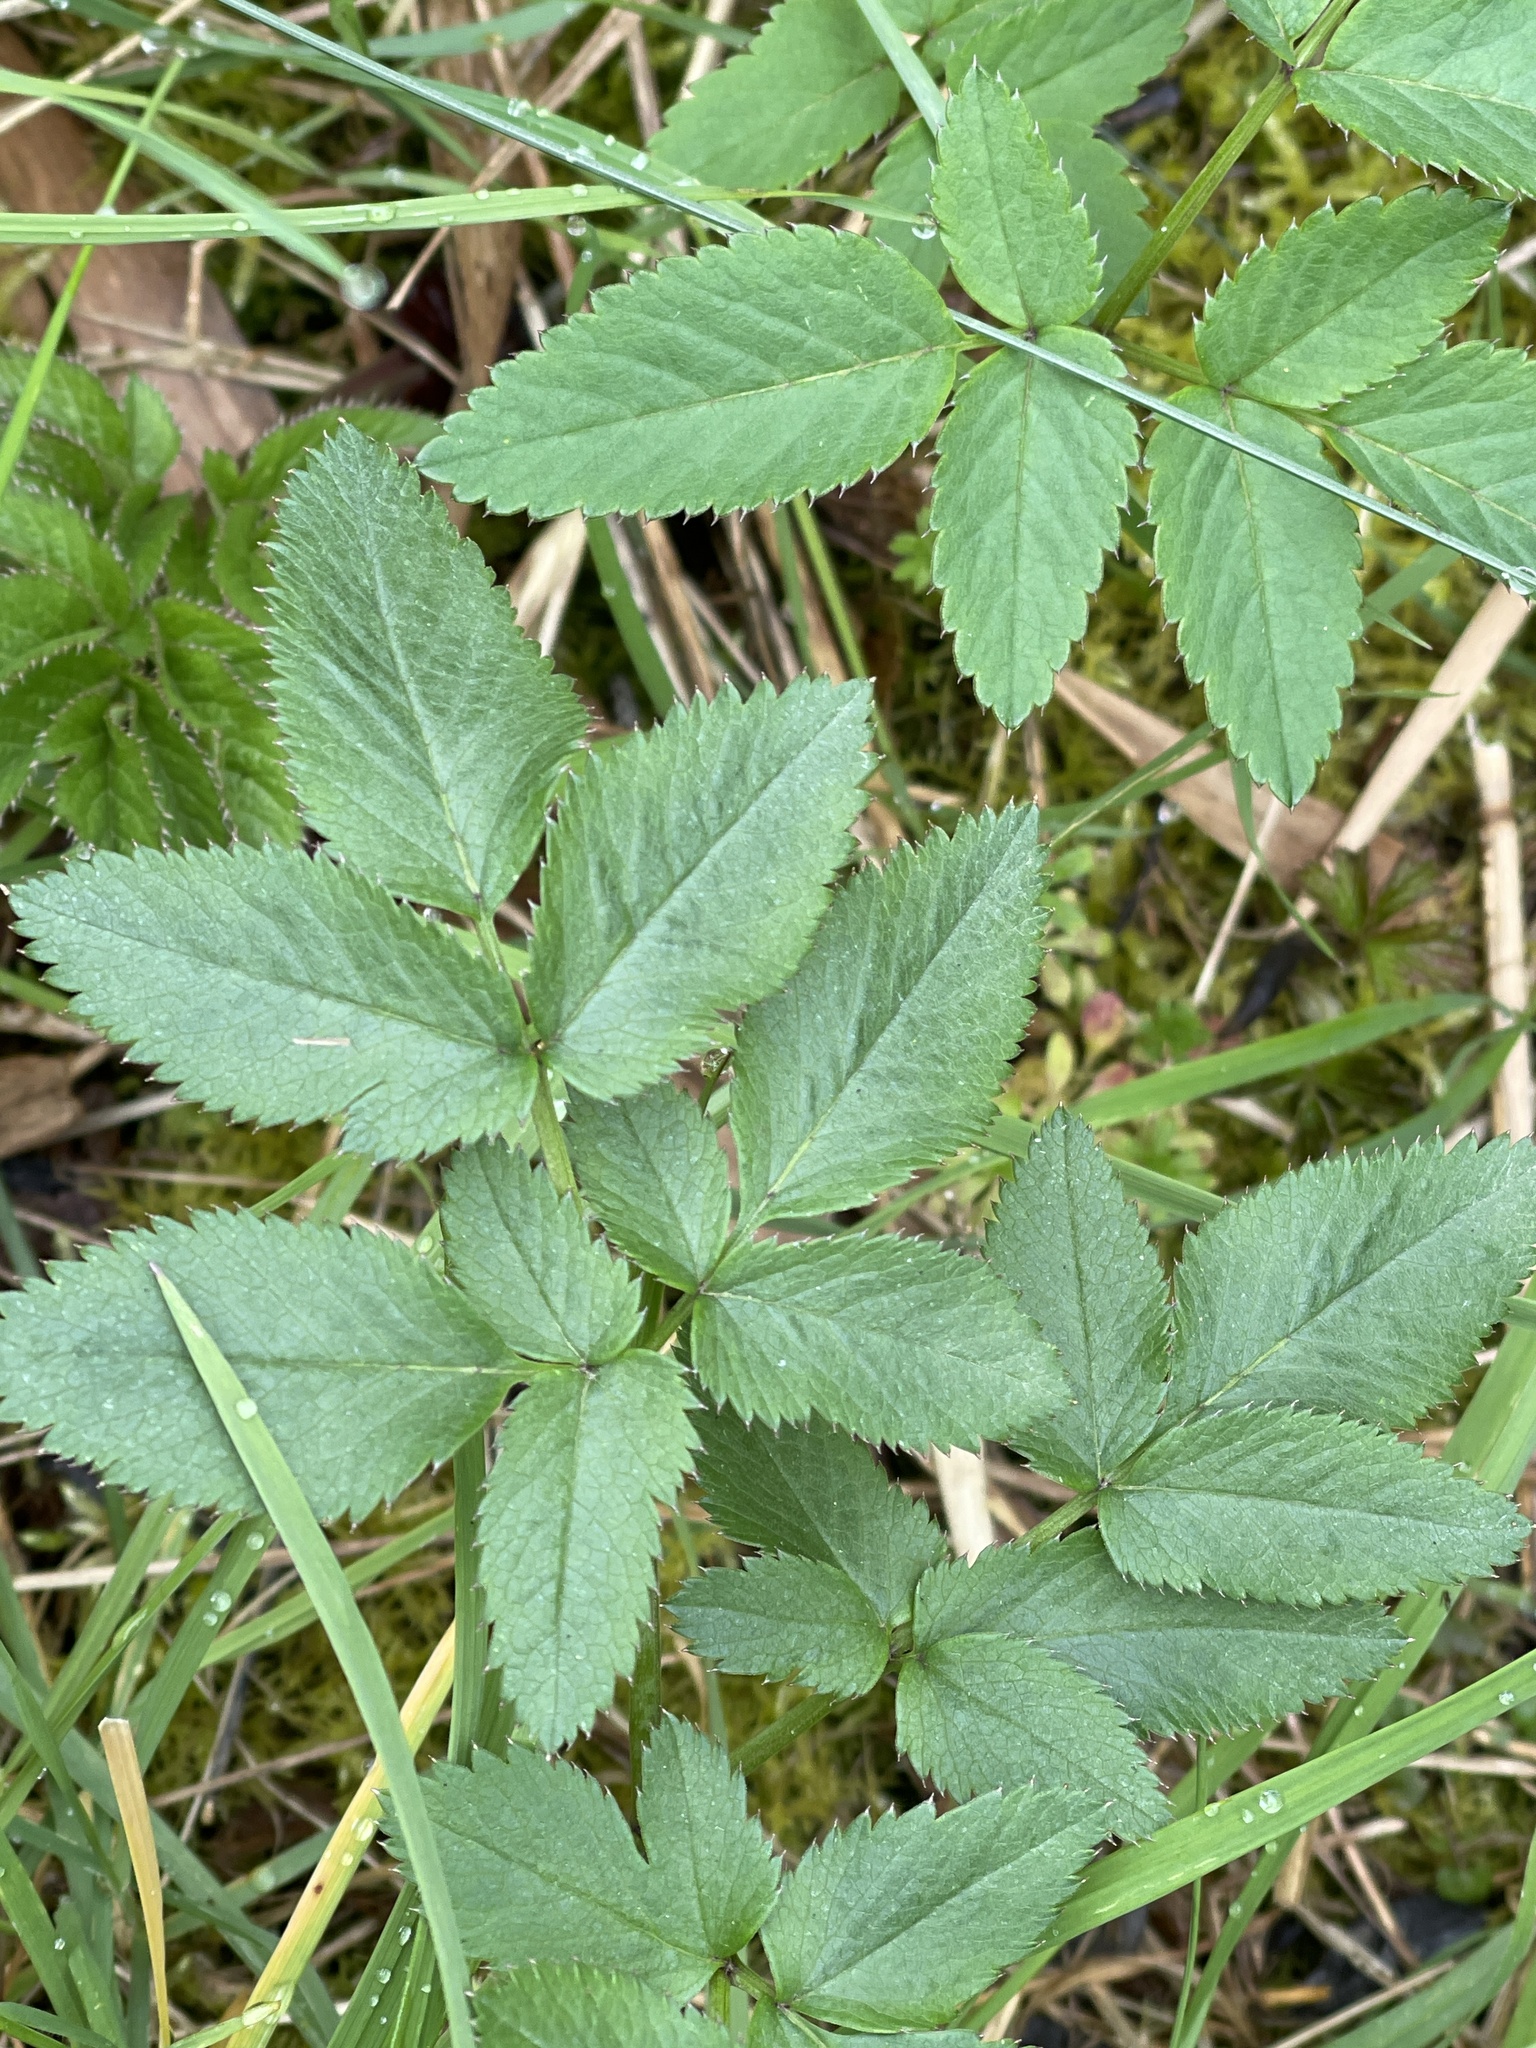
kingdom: Plantae
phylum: Tracheophyta
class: Magnoliopsida
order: Apiales
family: Apiaceae
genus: Angelica
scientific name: Angelica sylvestris
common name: Wild angelica
